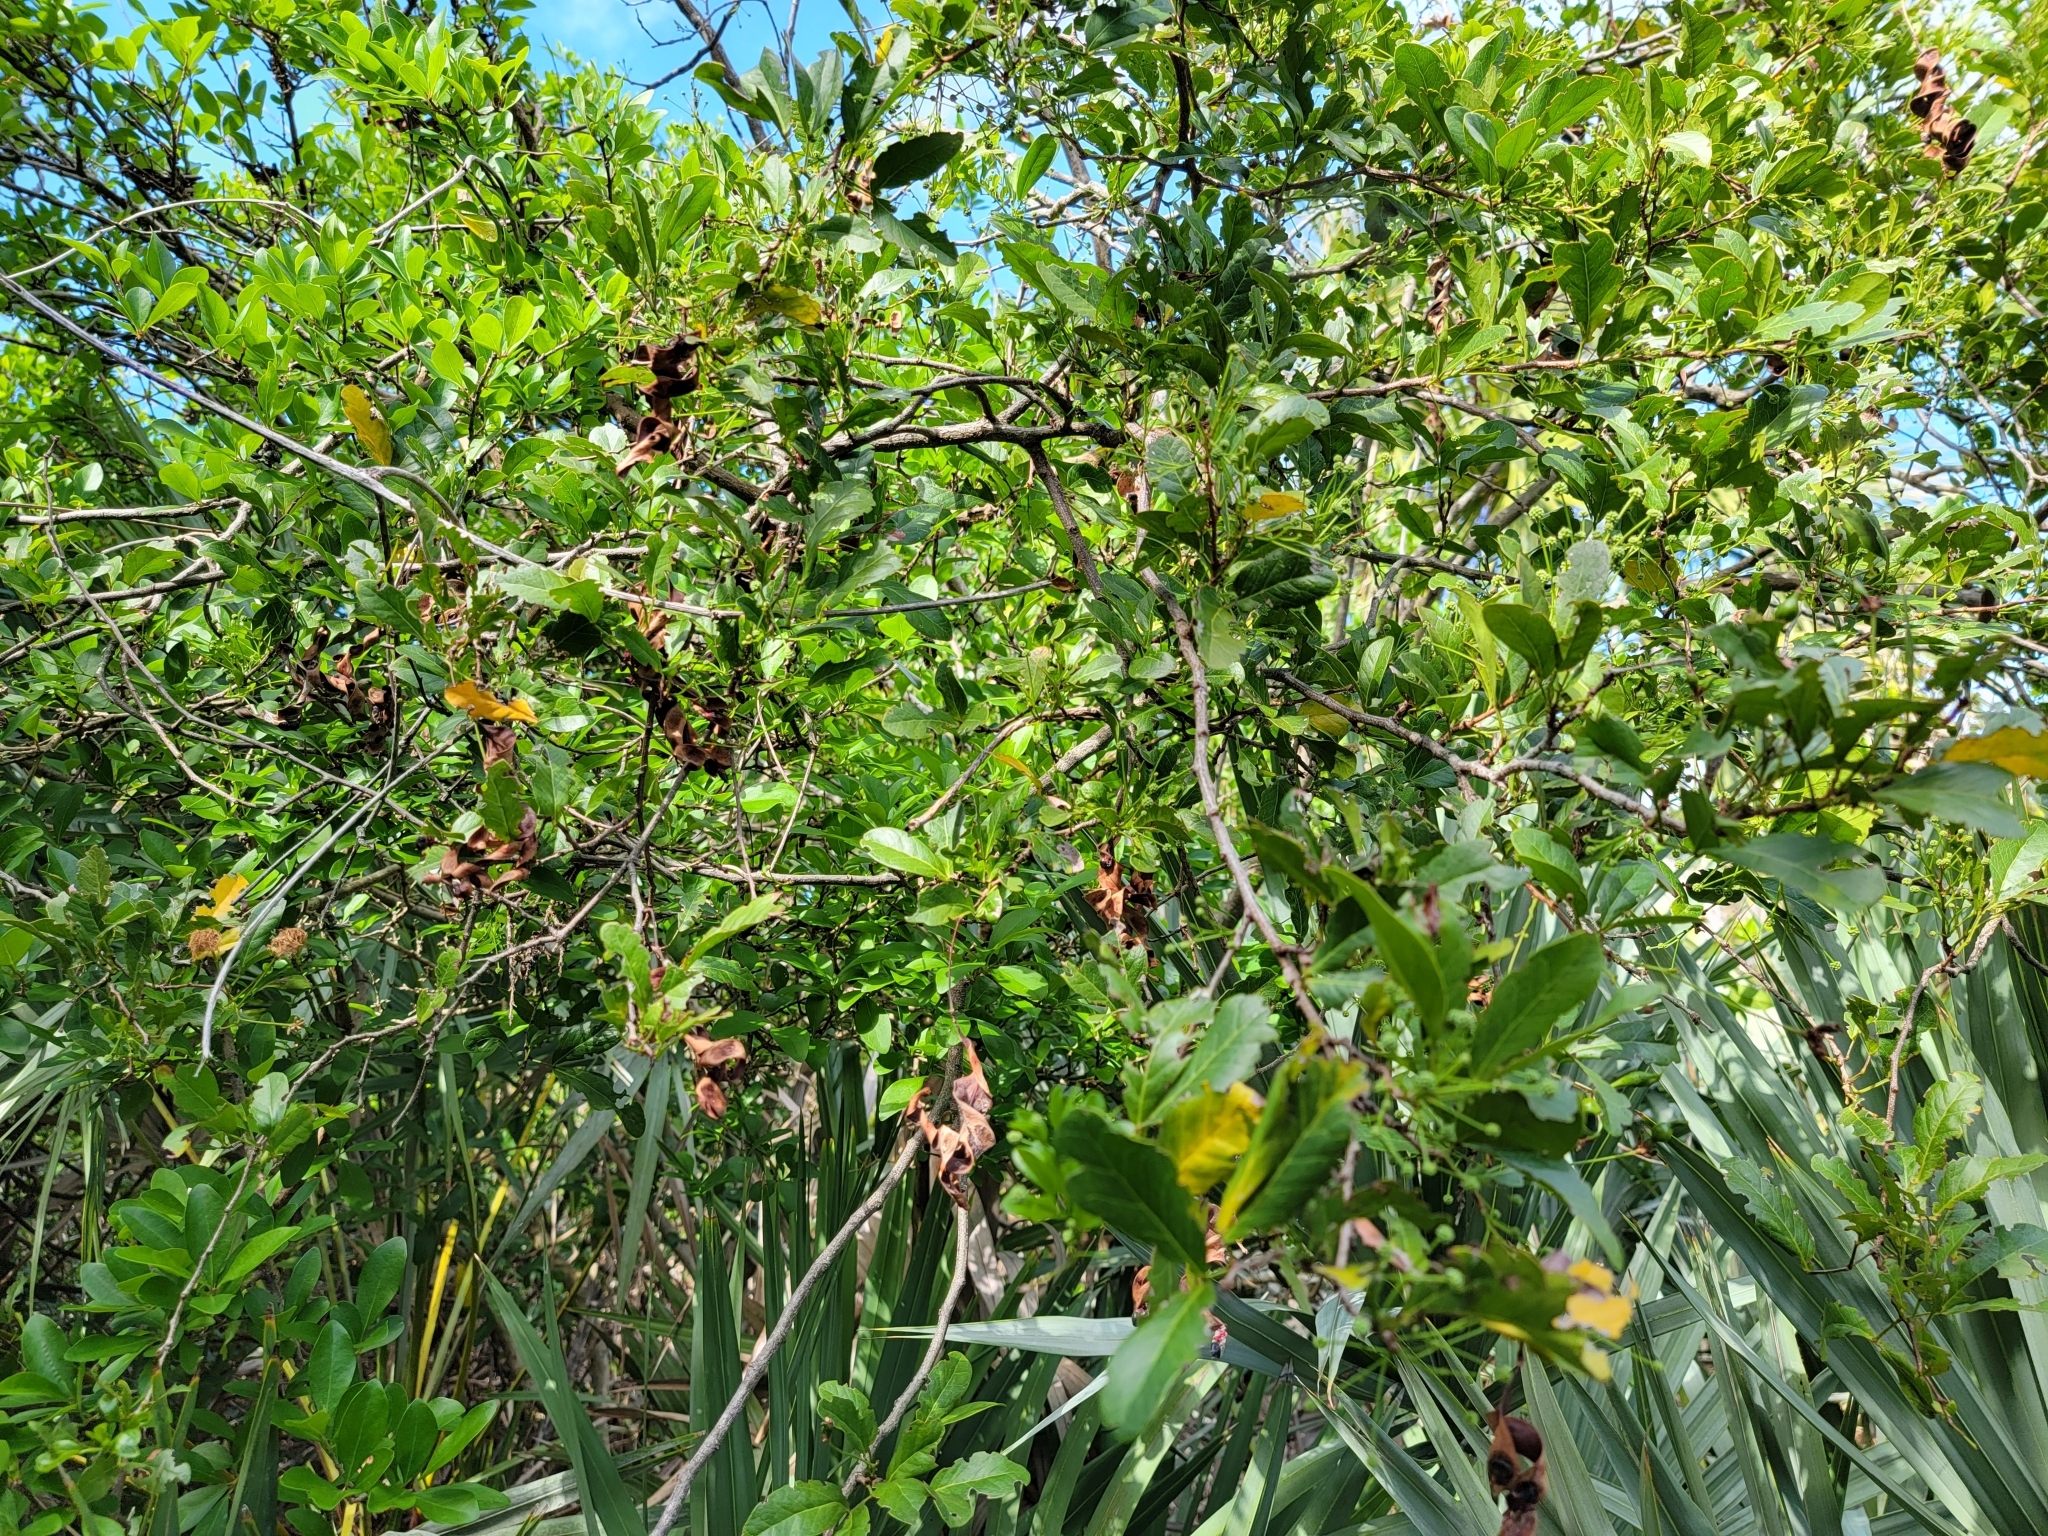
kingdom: Plantae
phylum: Tracheophyta
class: Magnoliopsida
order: Fabales
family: Fabaceae
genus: Pithecellobium
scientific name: Pithecellobium keyense
